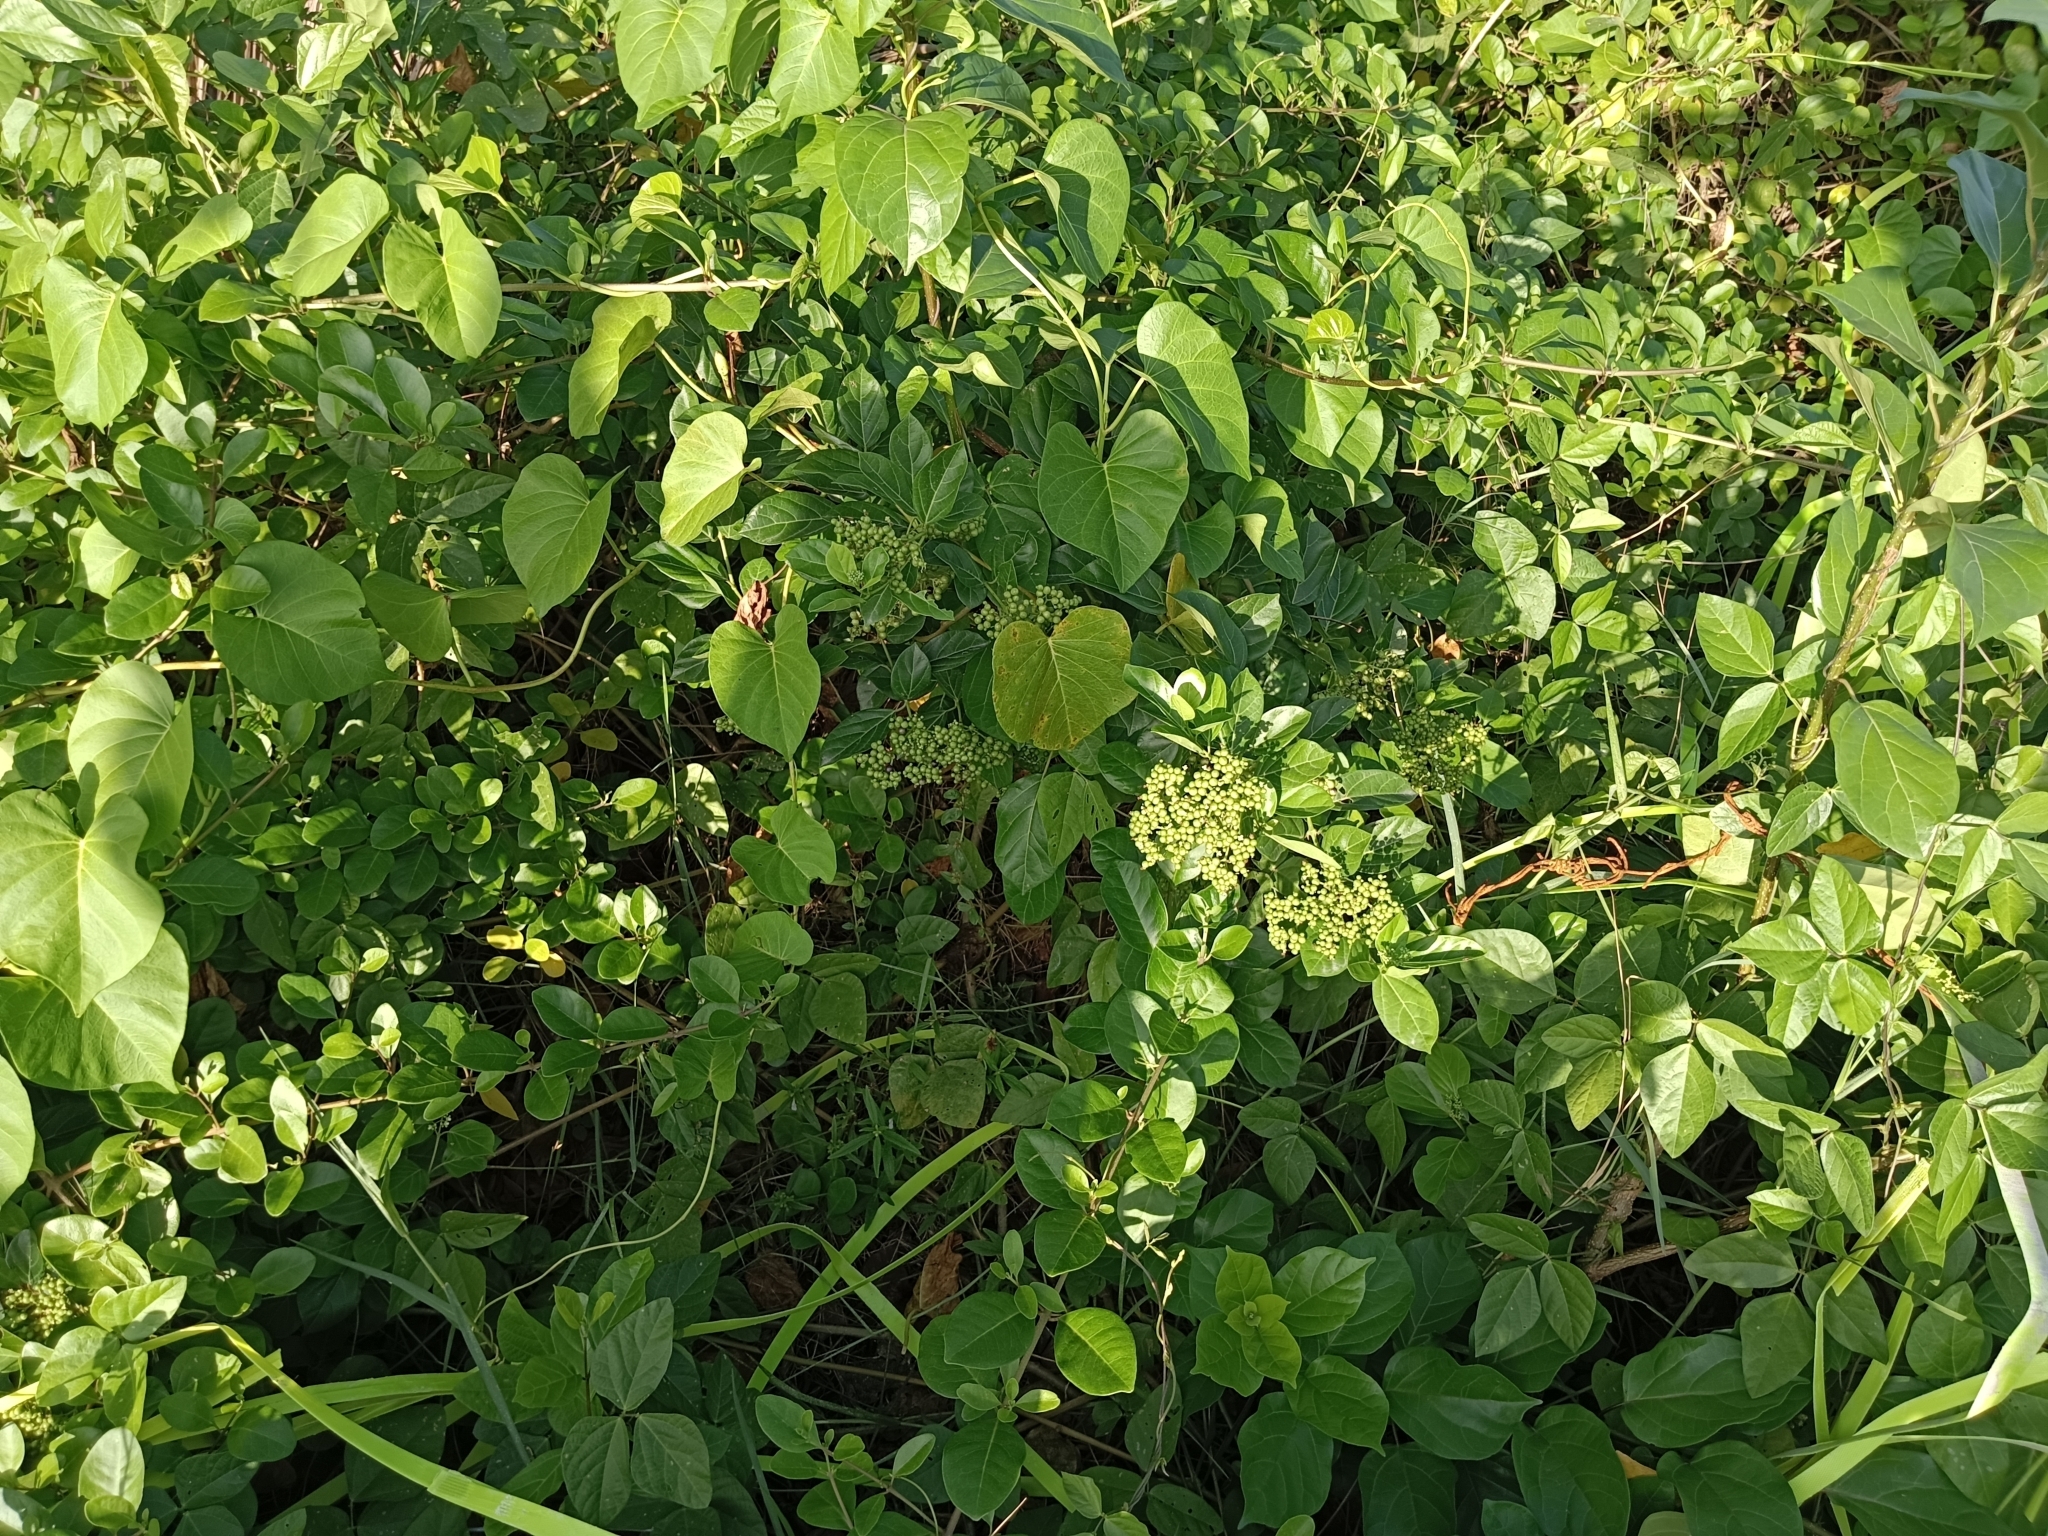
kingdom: Plantae
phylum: Tracheophyta
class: Magnoliopsida
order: Lamiales
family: Lamiaceae
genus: Premna
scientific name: Premna serratifolia
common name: Bastard guelder
